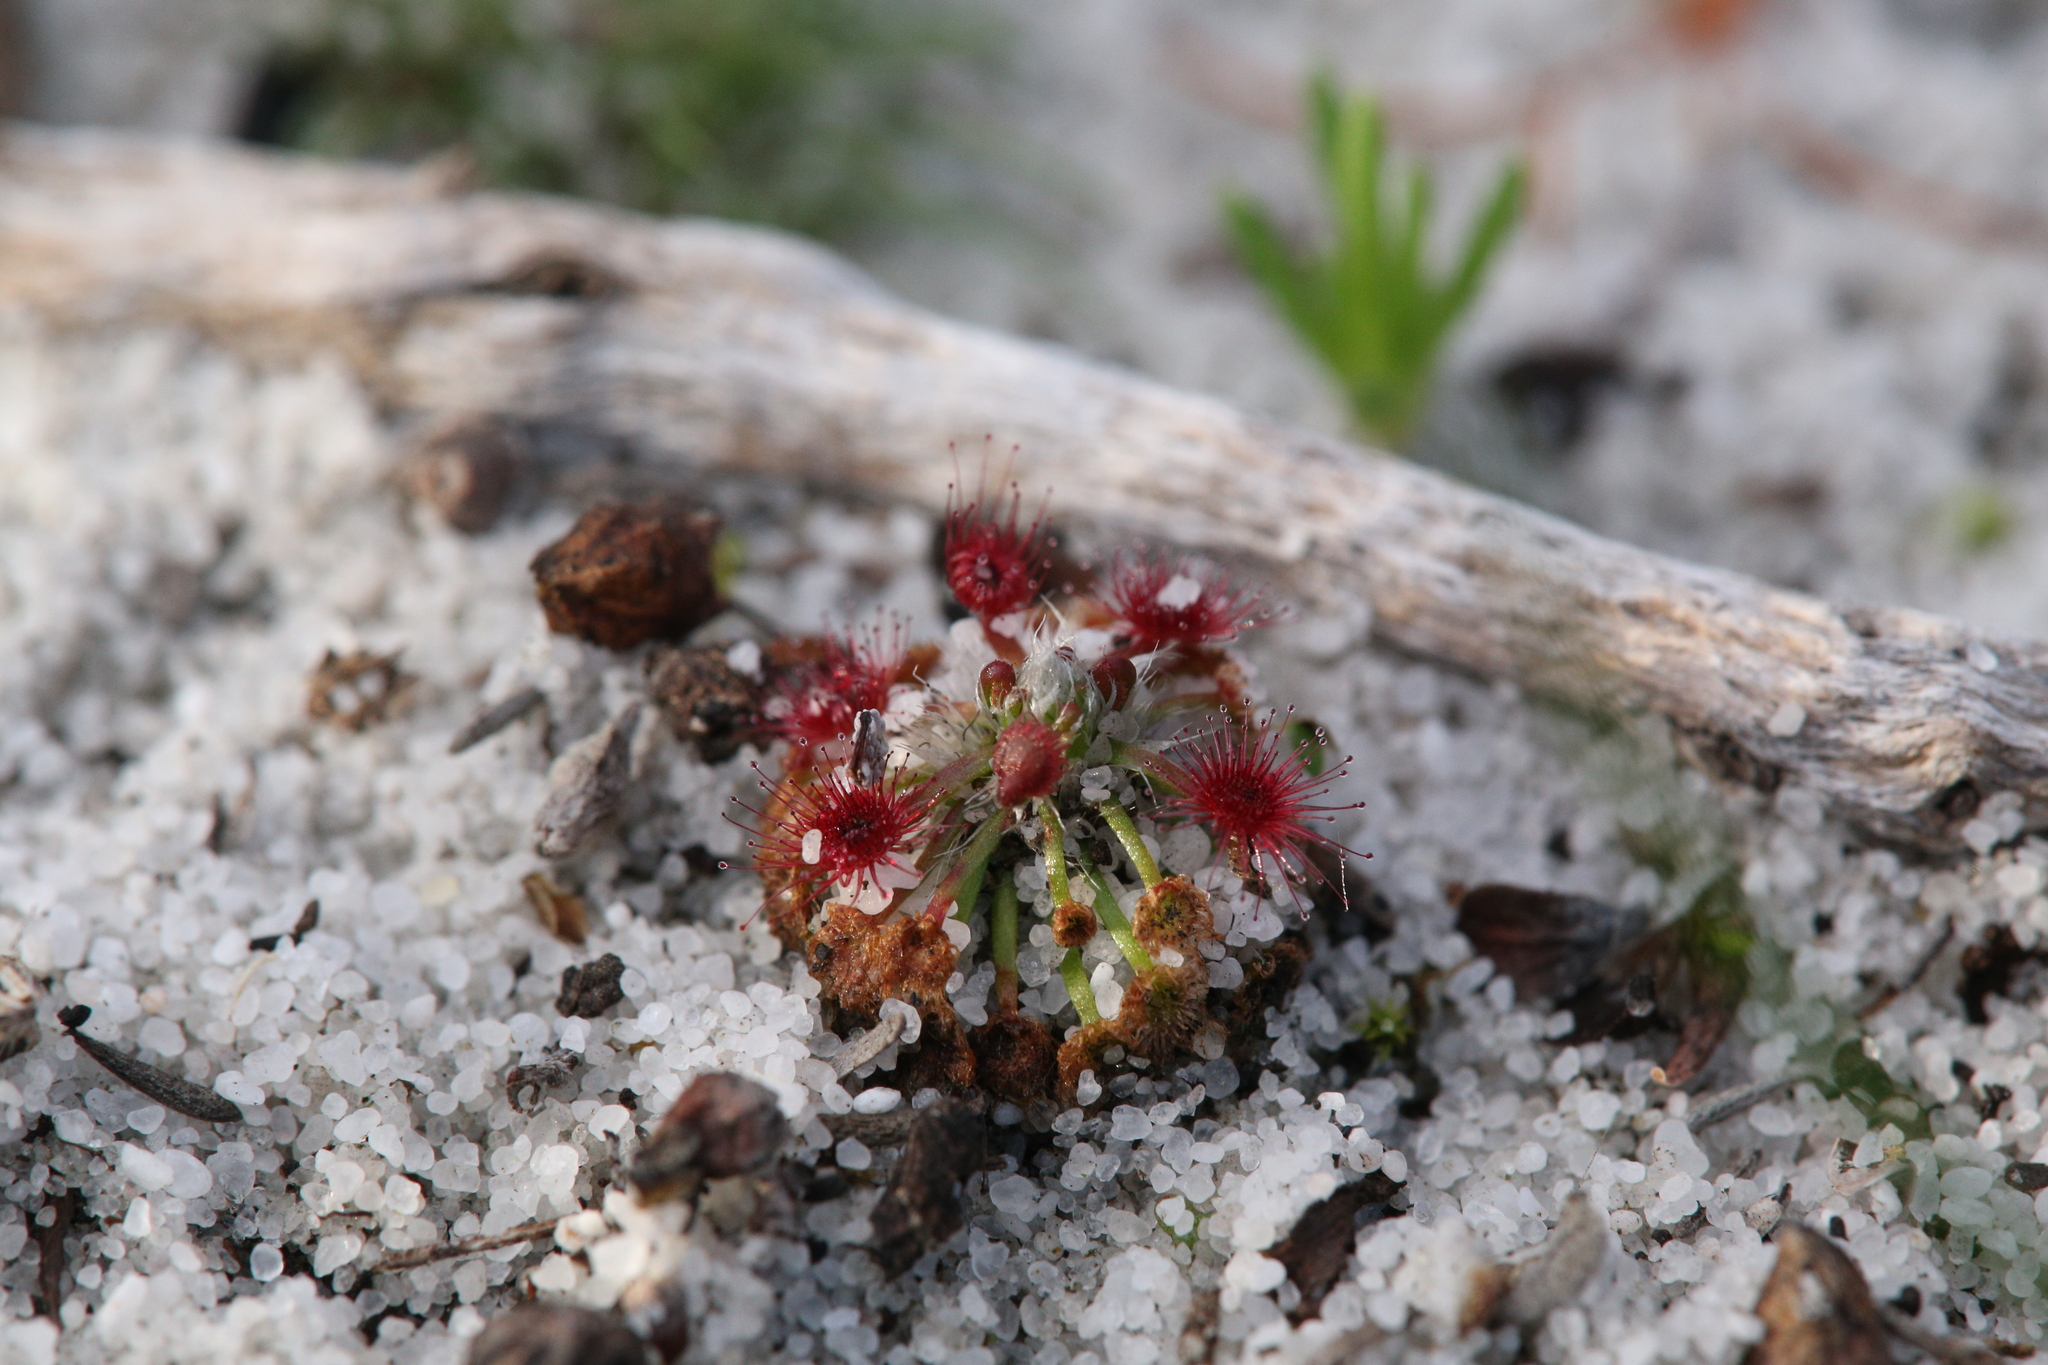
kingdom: Plantae
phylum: Tracheophyta
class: Magnoliopsida
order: Caryophyllales
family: Droseraceae
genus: Drosera
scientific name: Drosera paleacea
